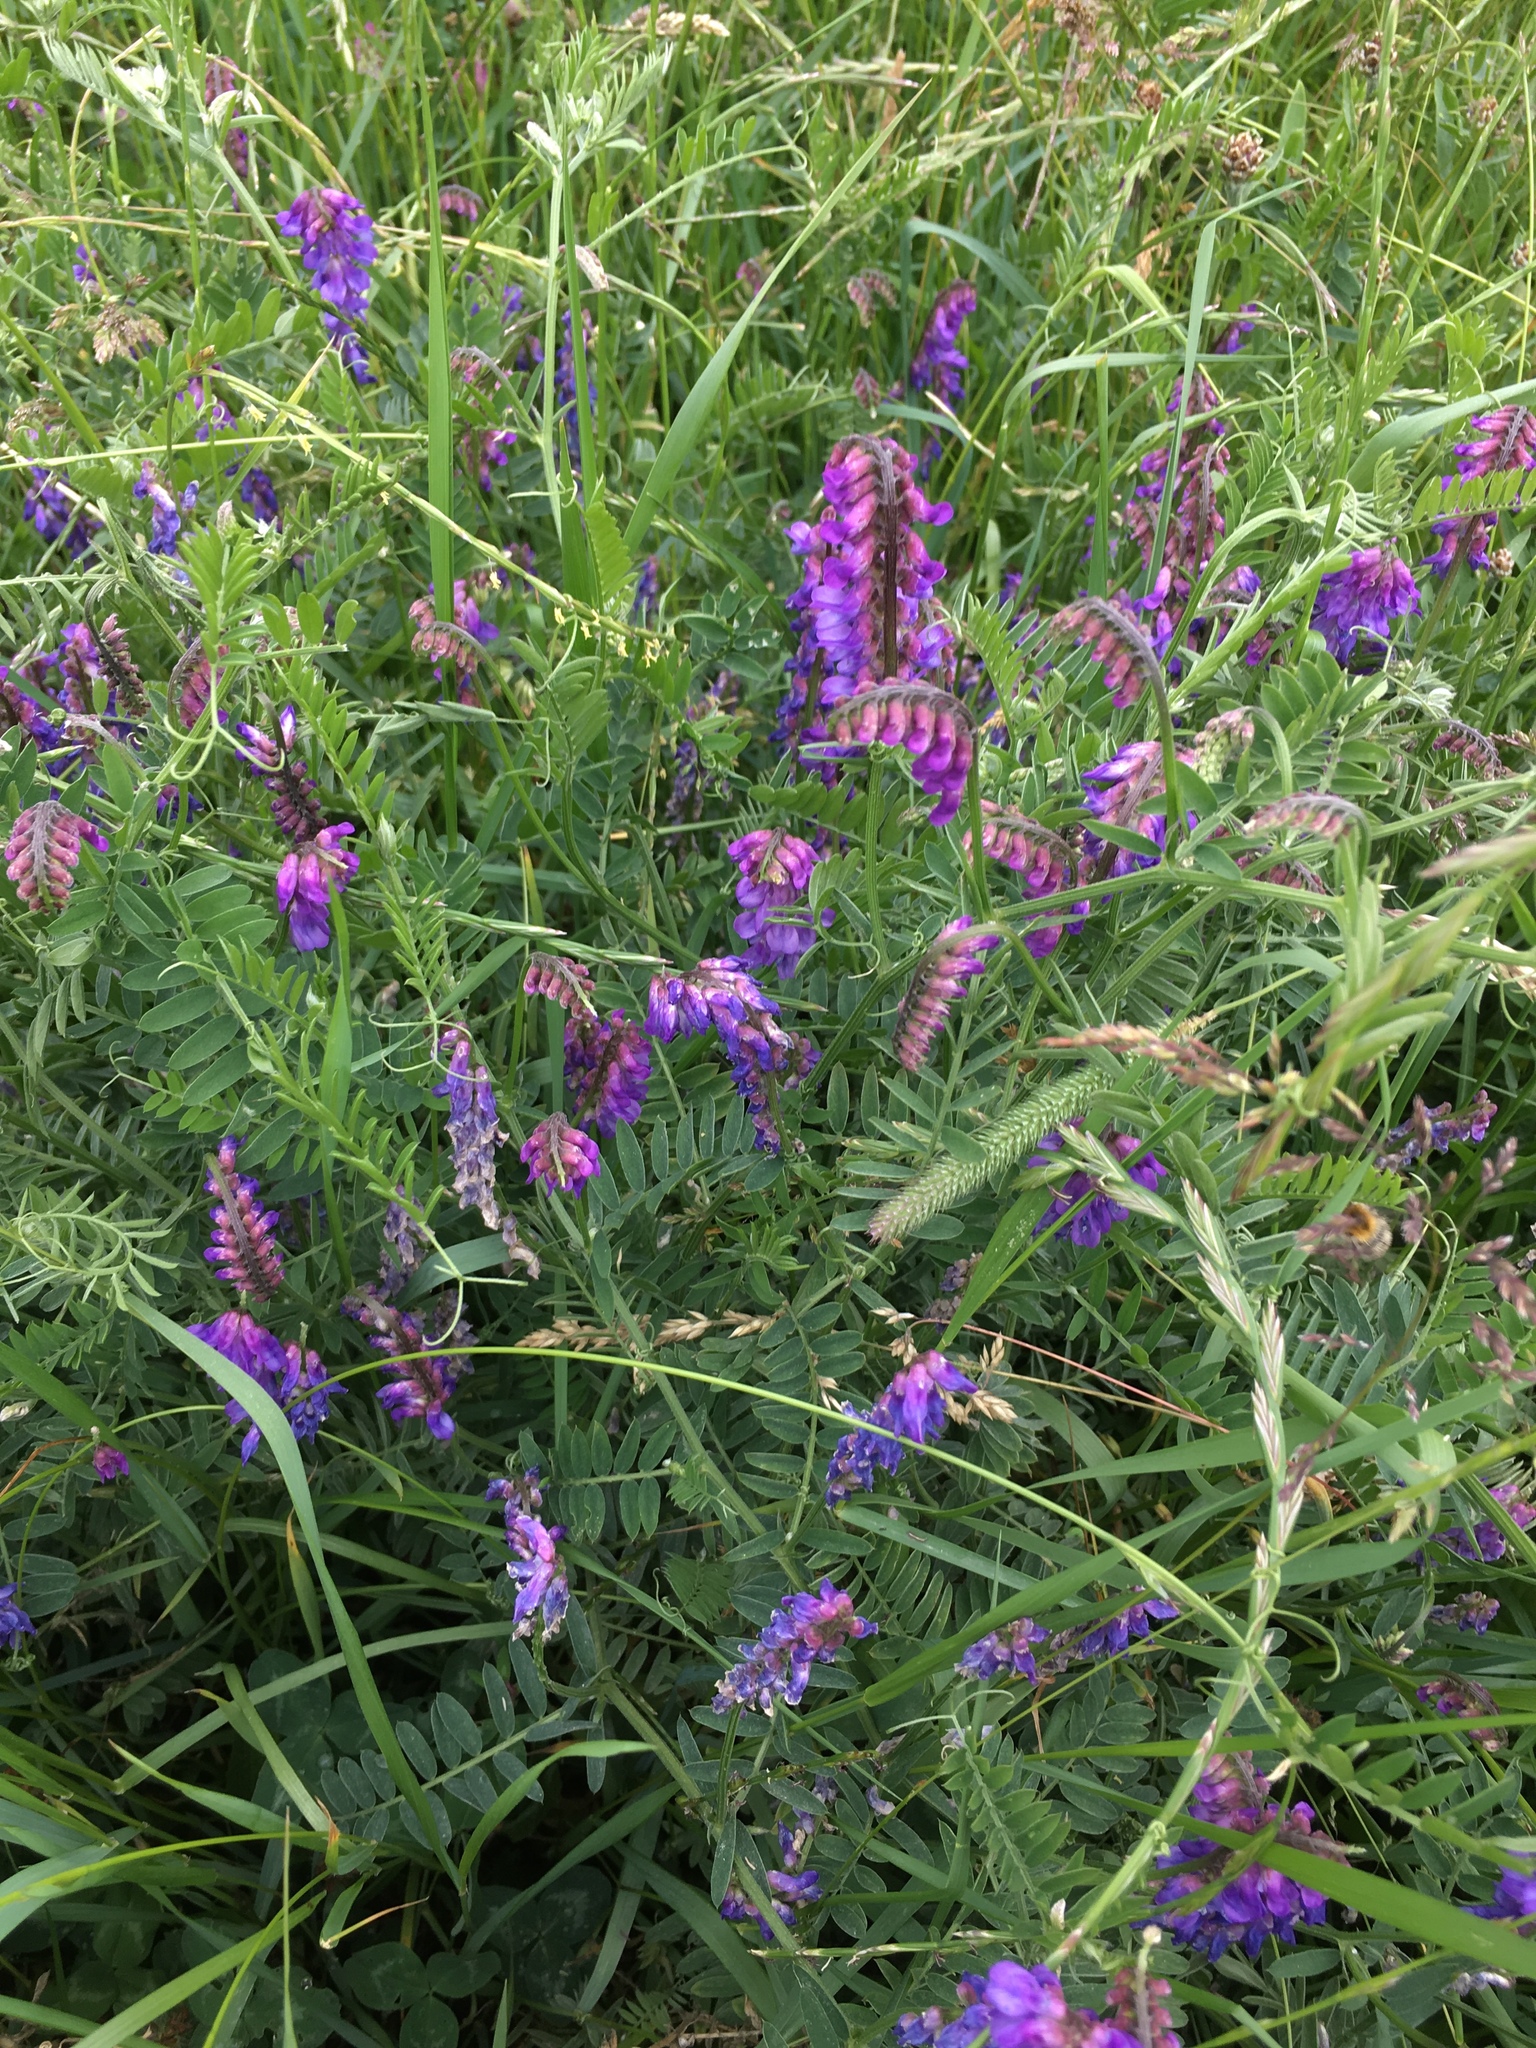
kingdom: Plantae
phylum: Tracheophyta
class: Magnoliopsida
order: Fabales
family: Fabaceae
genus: Vicia
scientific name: Vicia cracca
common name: Bird vetch
